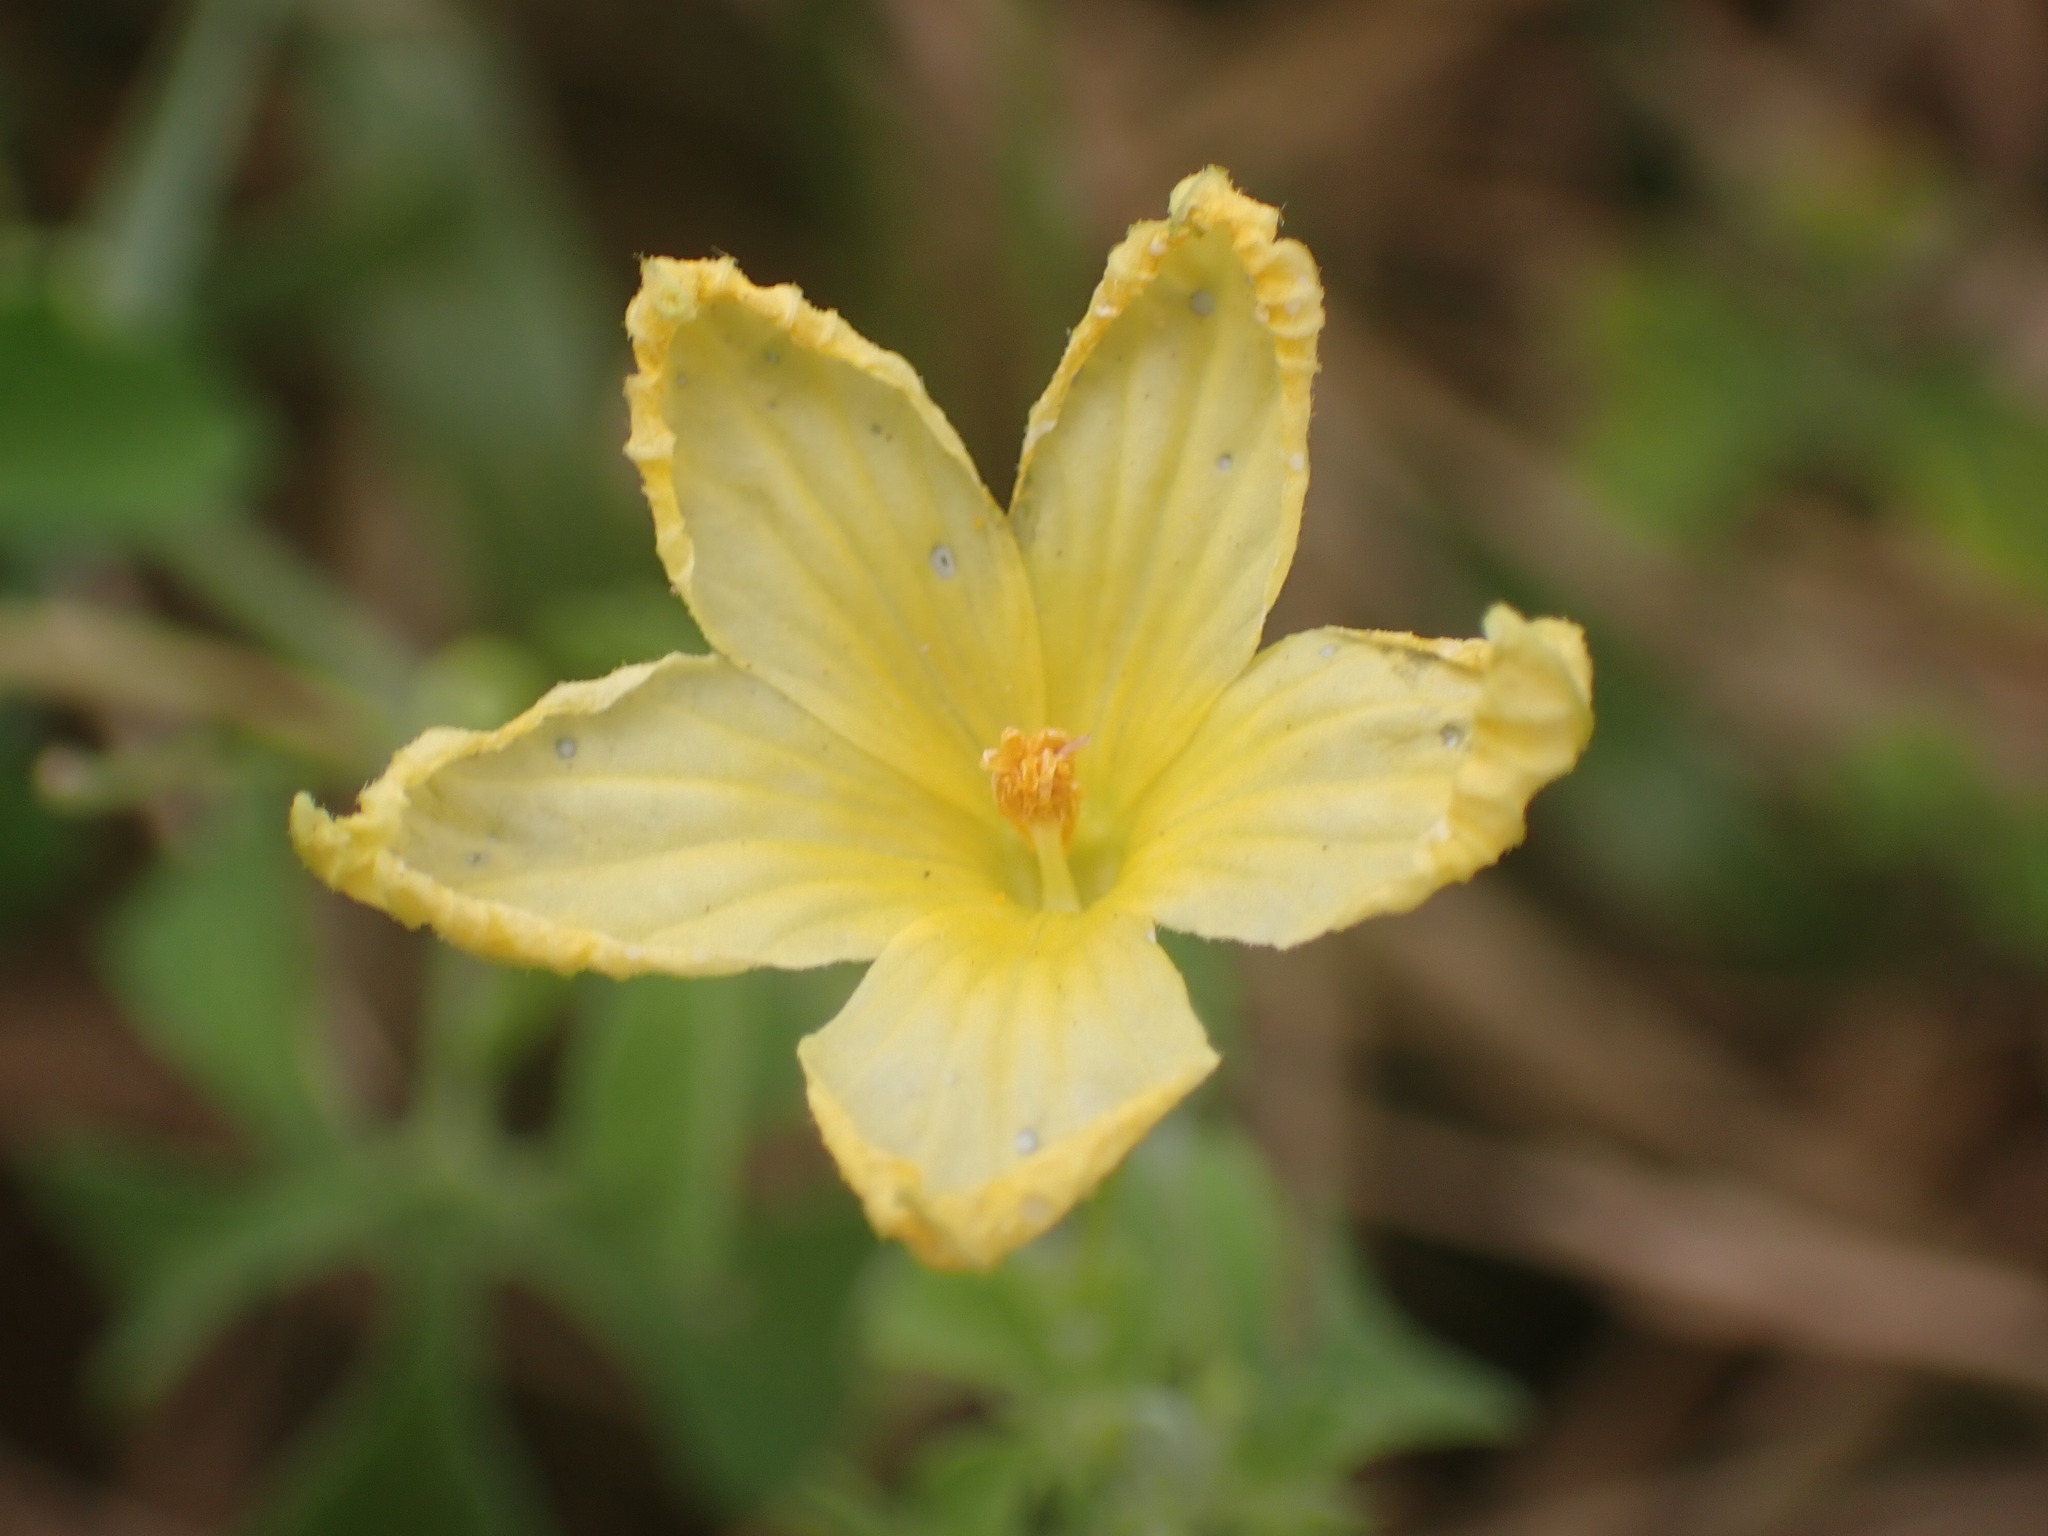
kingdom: Plantae
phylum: Tracheophyta
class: Magnoliopsida
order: Cucurbitales
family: Cucurbitaceae
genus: Momordica
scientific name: Momordica charantia
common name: Balsampear
